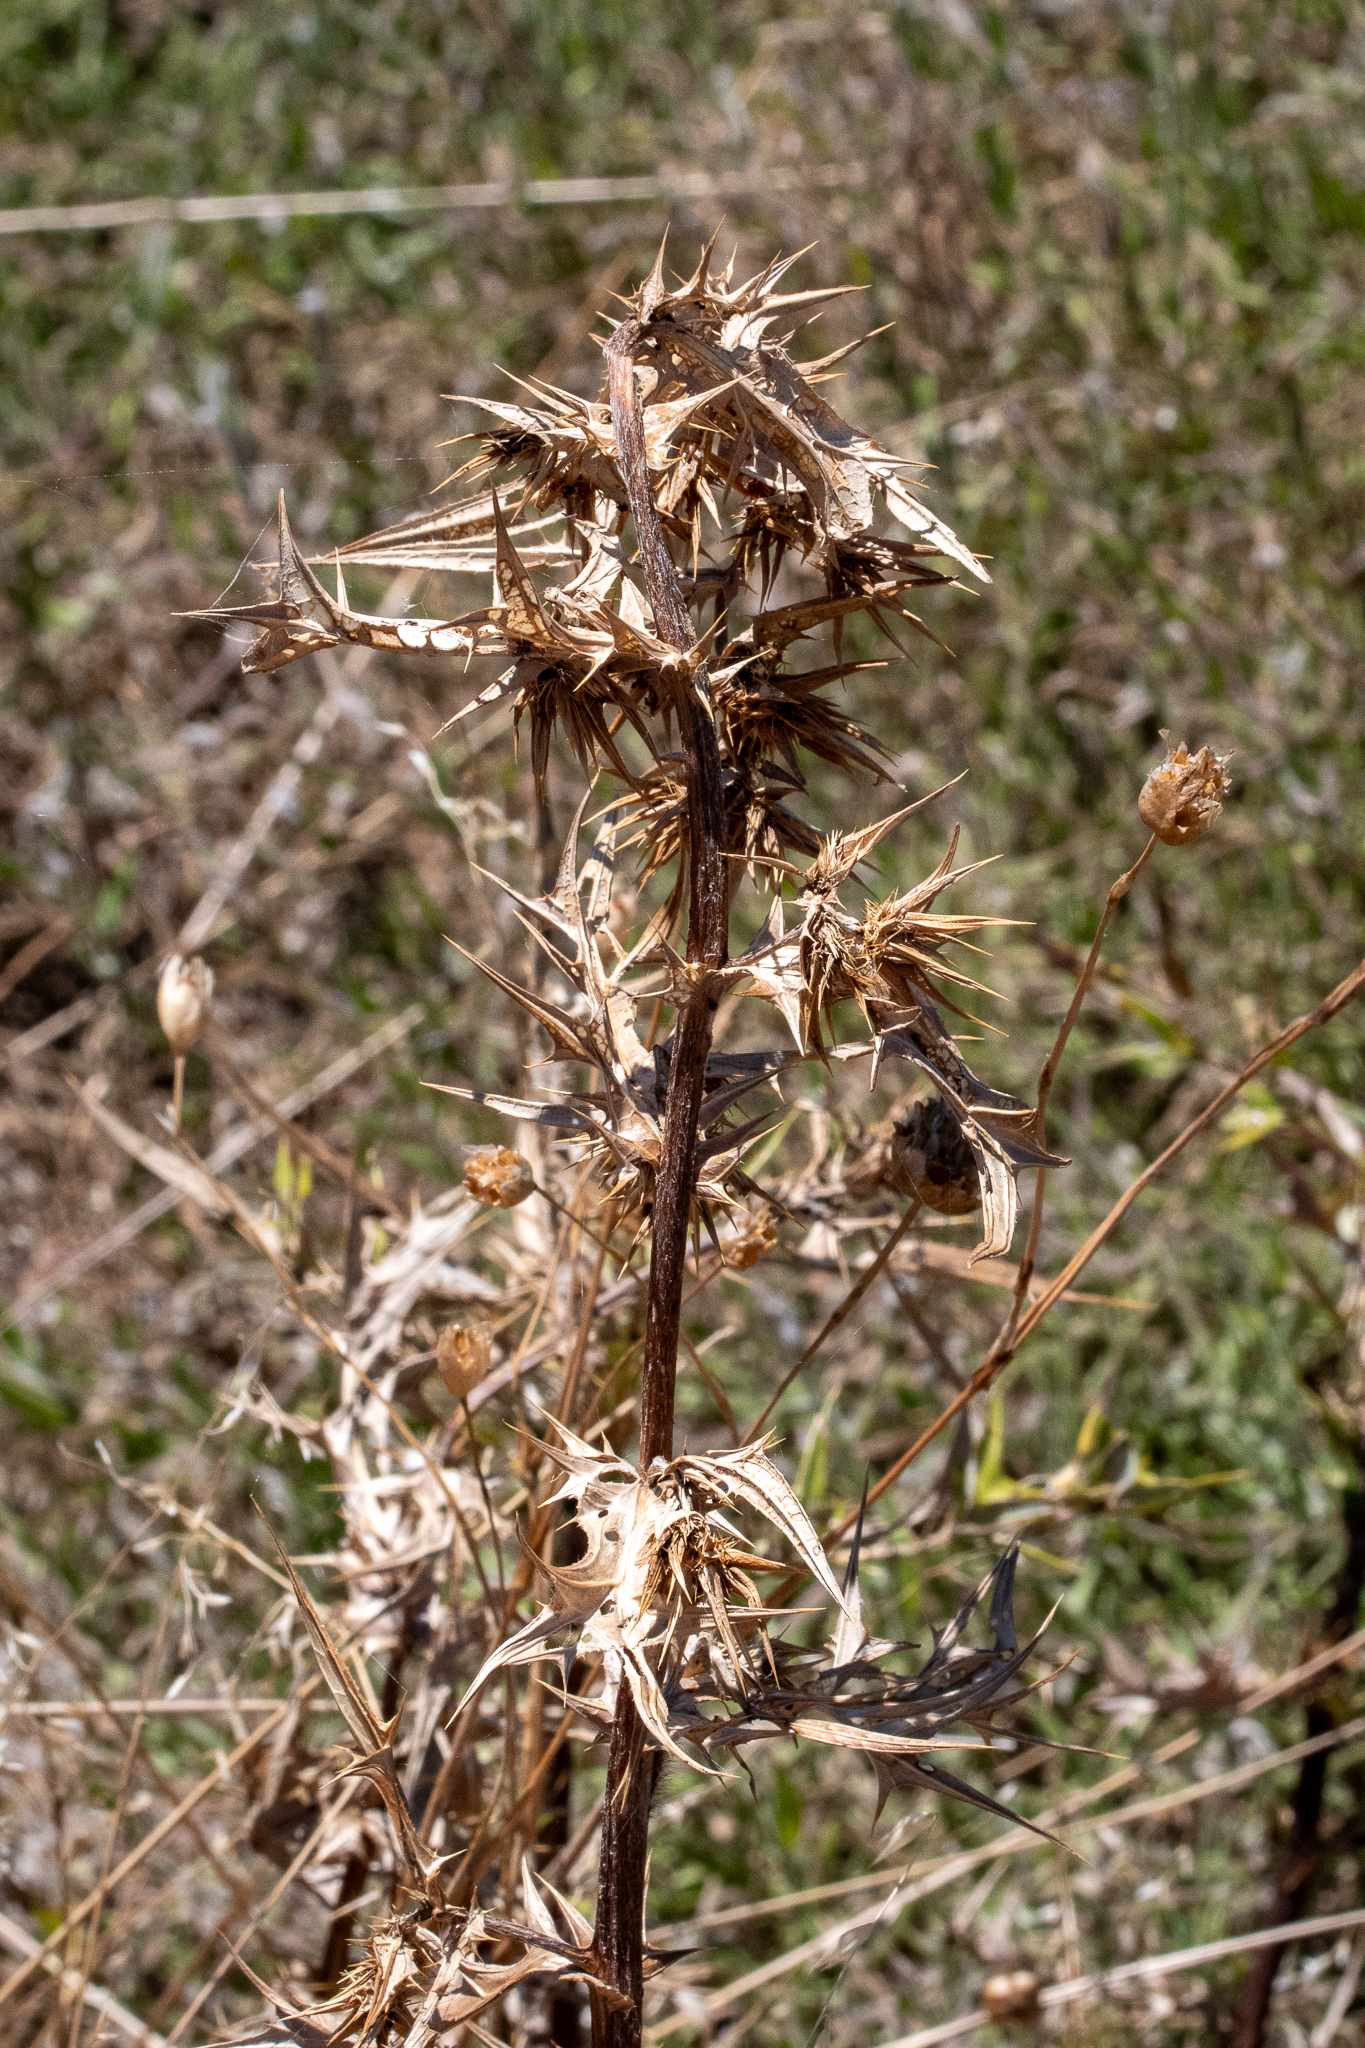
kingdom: Plantae
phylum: Tracheophyta
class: Magnoliopsida
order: Asterales
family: Asteraceae
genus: Berkheya
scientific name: Berkheya rigida
